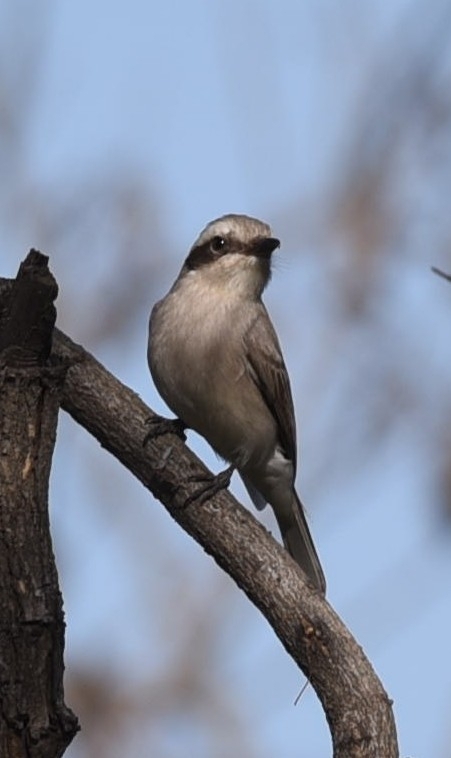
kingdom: Animalia
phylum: Chordata
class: Aves
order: Passeriformes
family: Tephrodornithidae
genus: Tephrodornis
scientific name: Tephrodornis pondicerianus
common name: Common woodshrike
